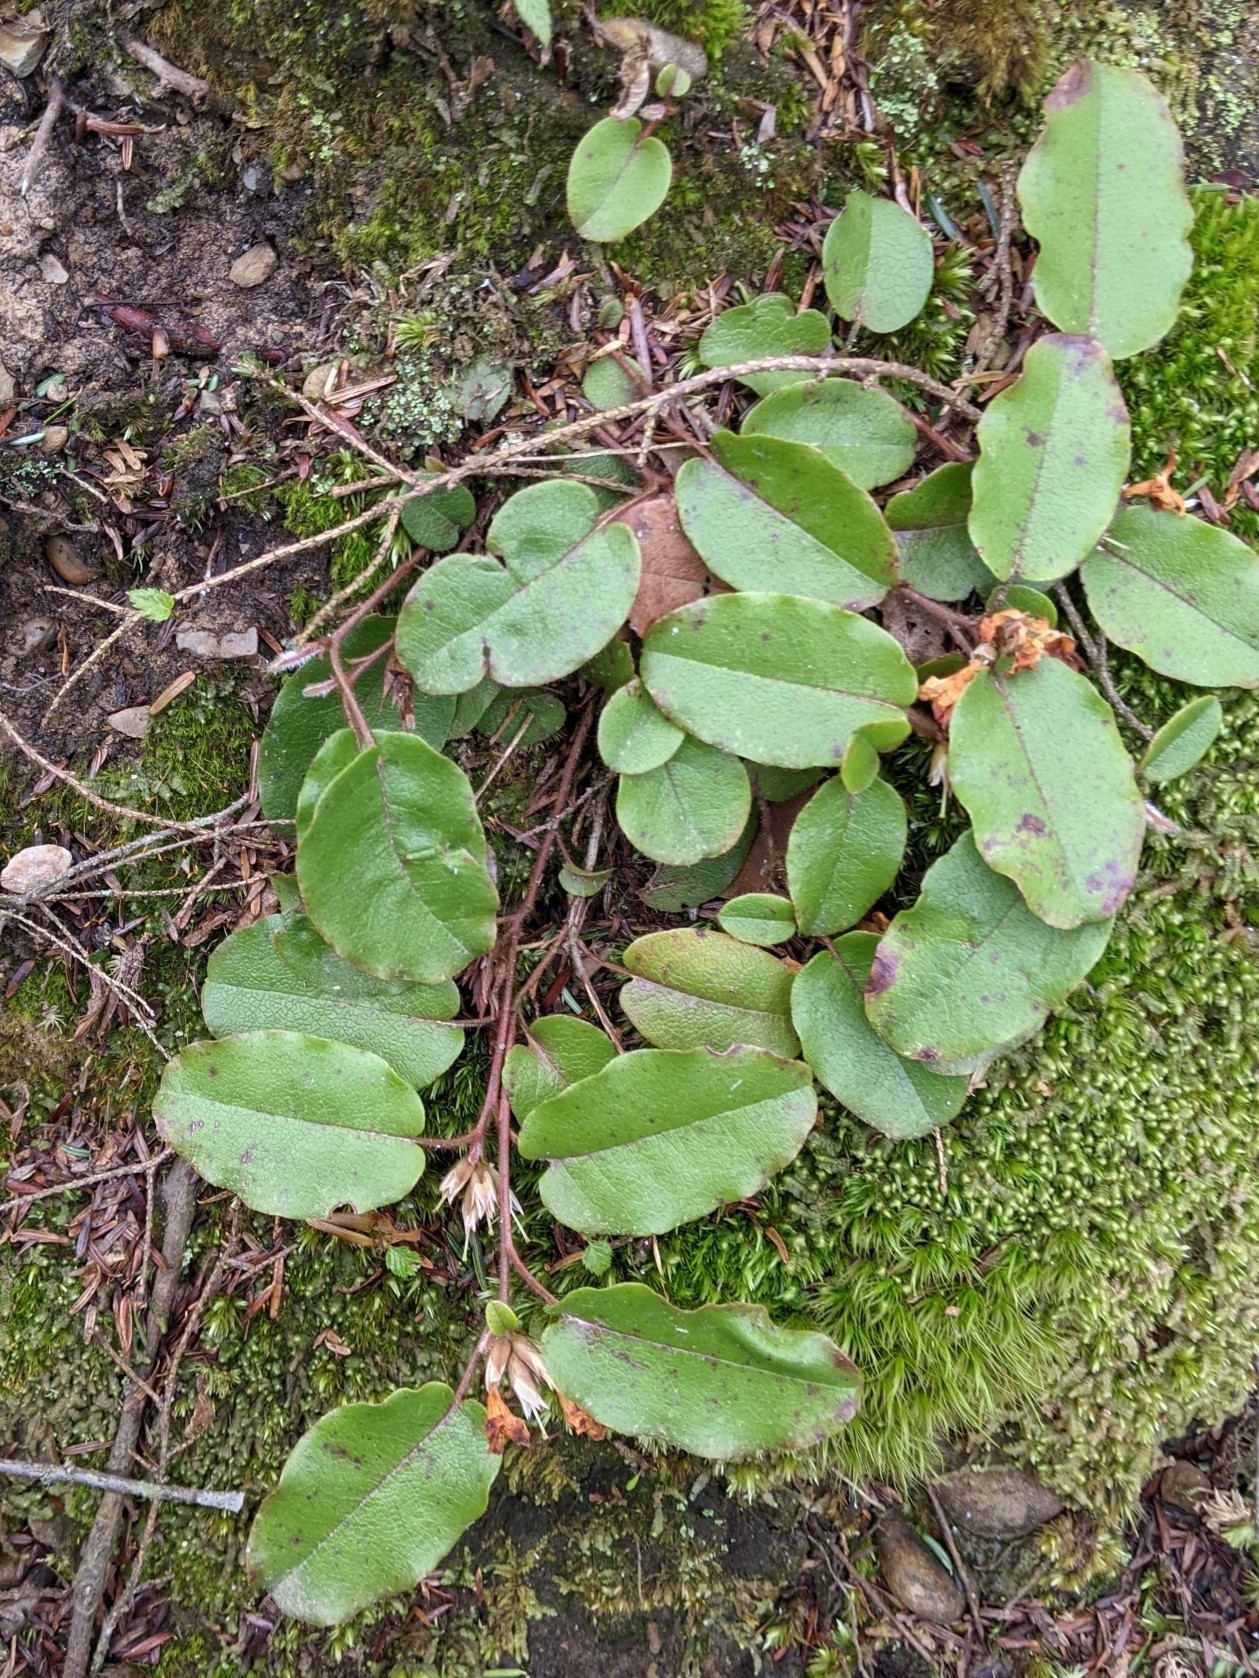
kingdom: Plantae
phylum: Tracheophyta
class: Magnoliopsida
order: Ericales
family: Ericaceae
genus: Epigaea
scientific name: Epigaea repens
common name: Gravelroot
